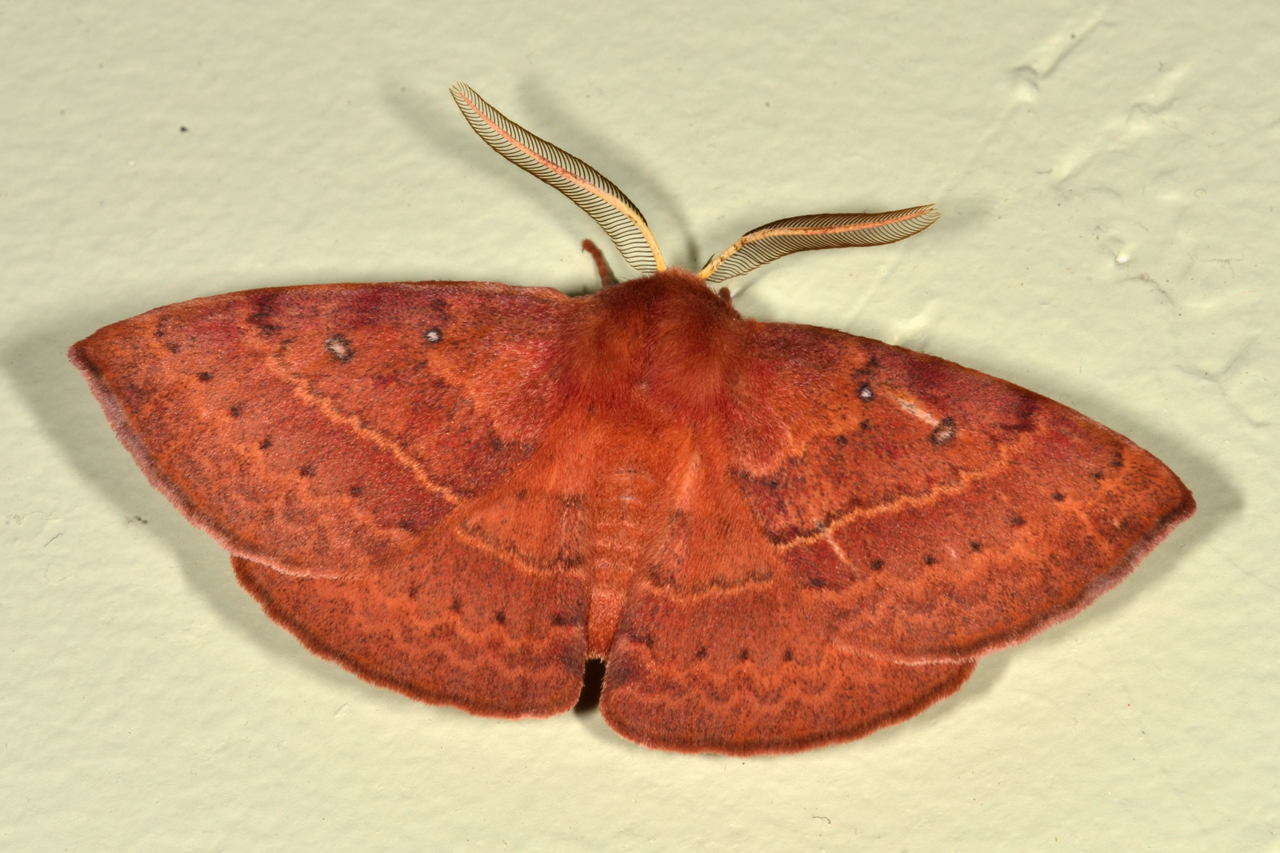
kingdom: Animalia
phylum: Arthropoda
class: Insecta
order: Lepidoptera
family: Anthelidae
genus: Anthela
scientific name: Anthela repleta
